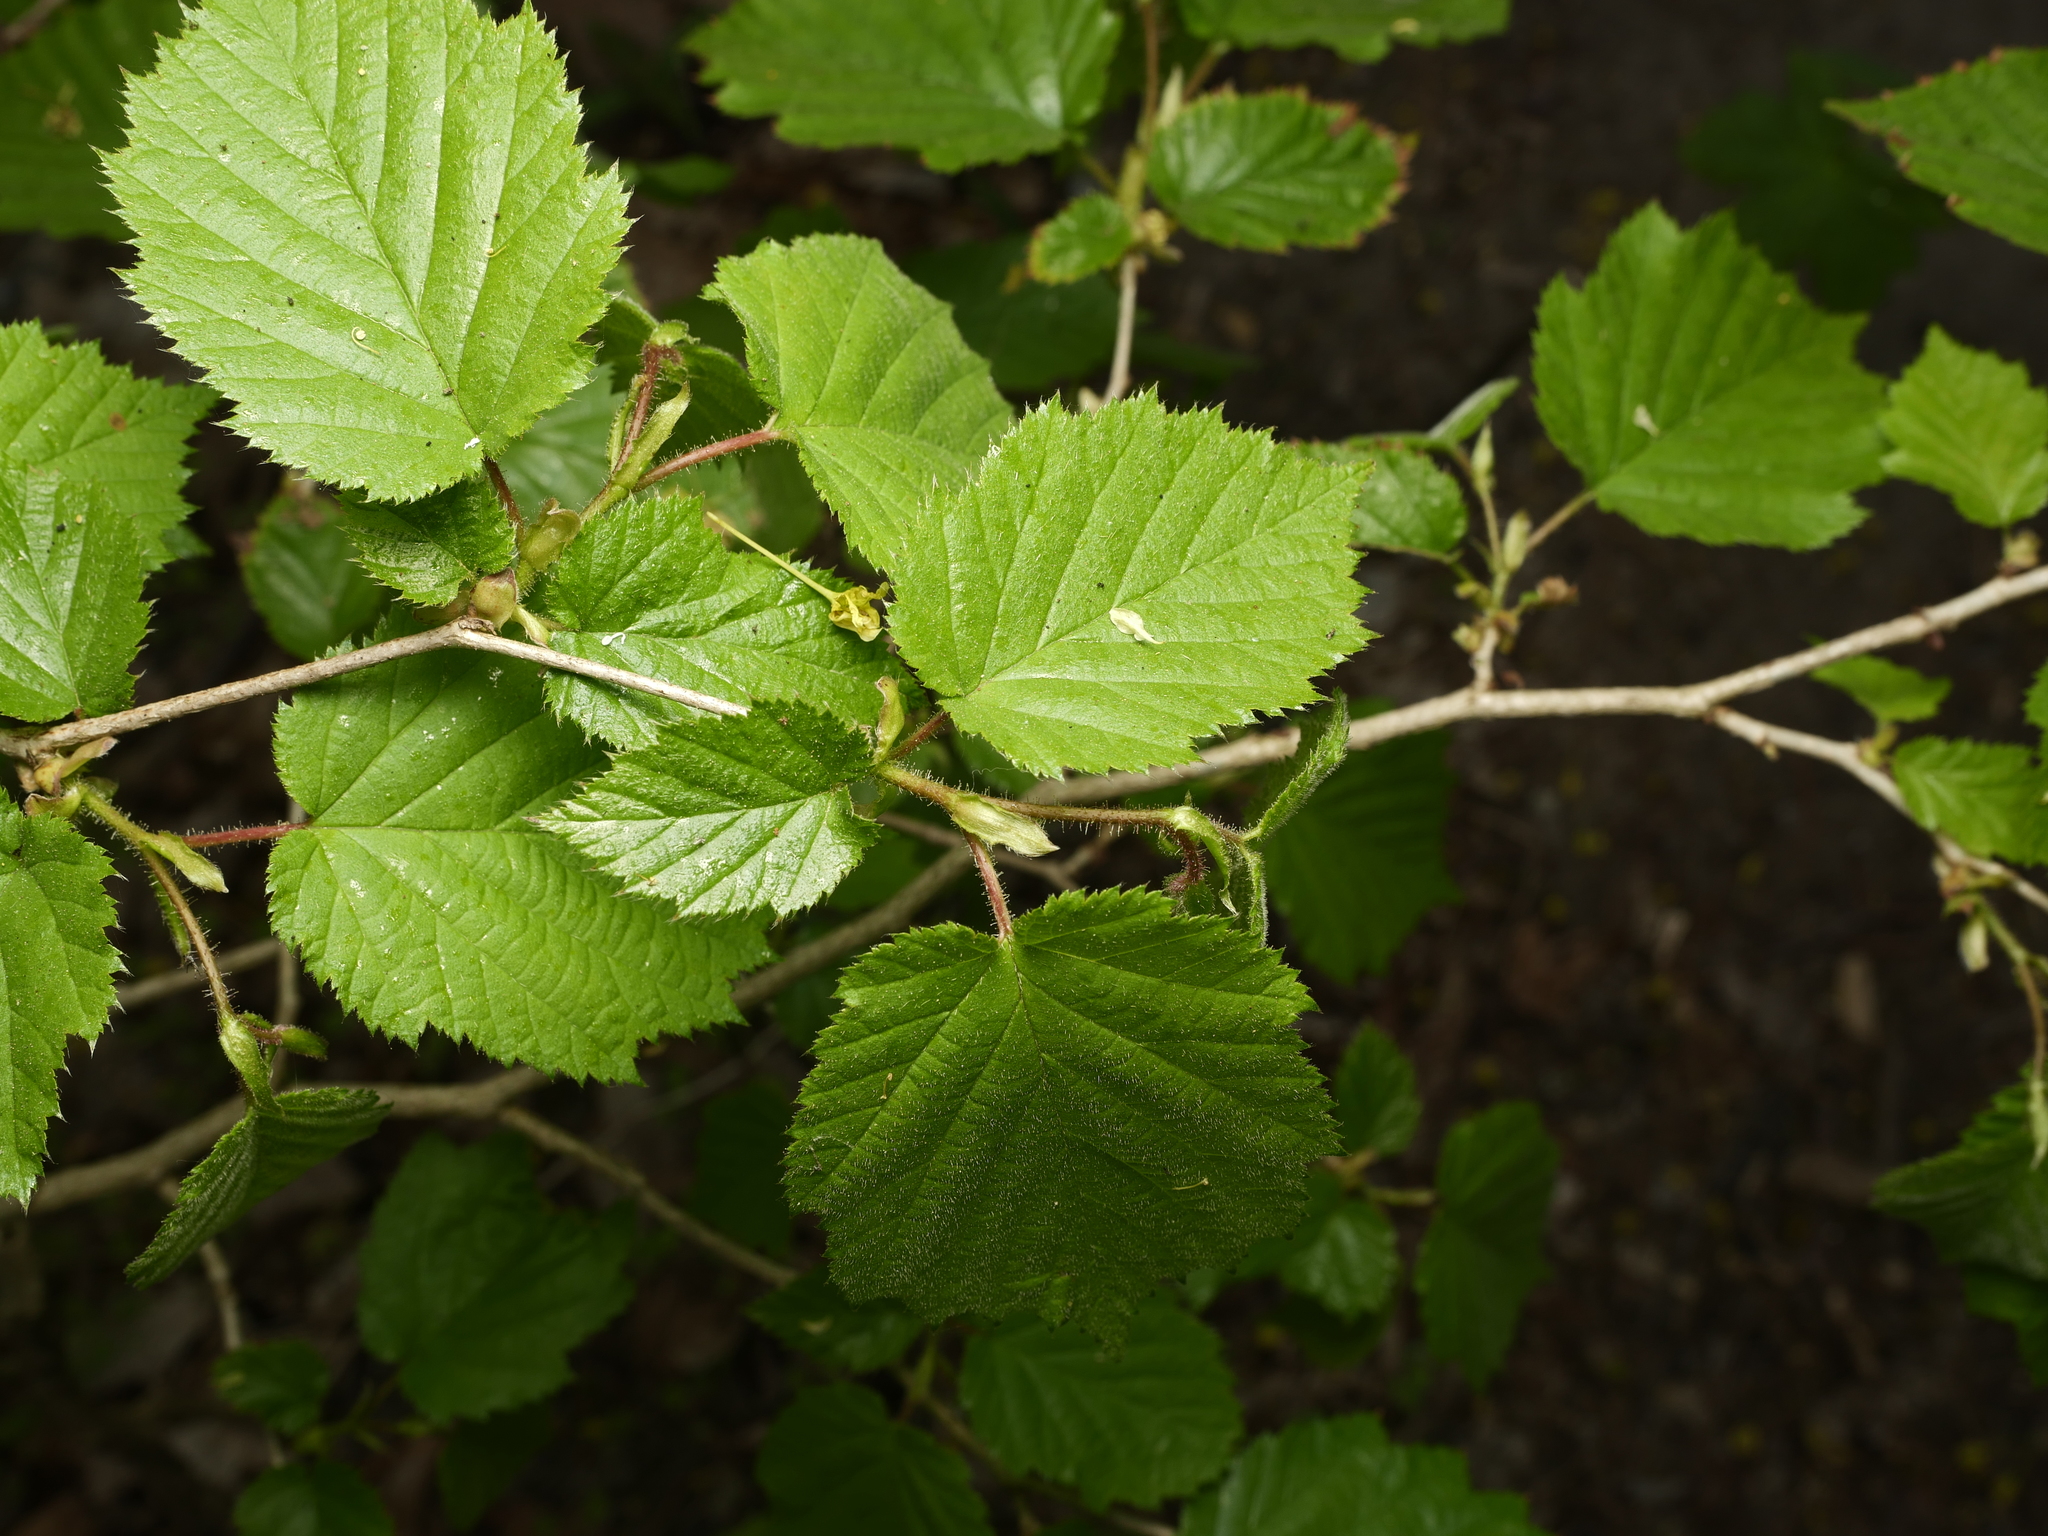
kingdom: Plantae
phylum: Tracheophyta
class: Magnoliopsida
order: Fagales
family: Betulaceae
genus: Corylus
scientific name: Corylus avellana
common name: European hazel
